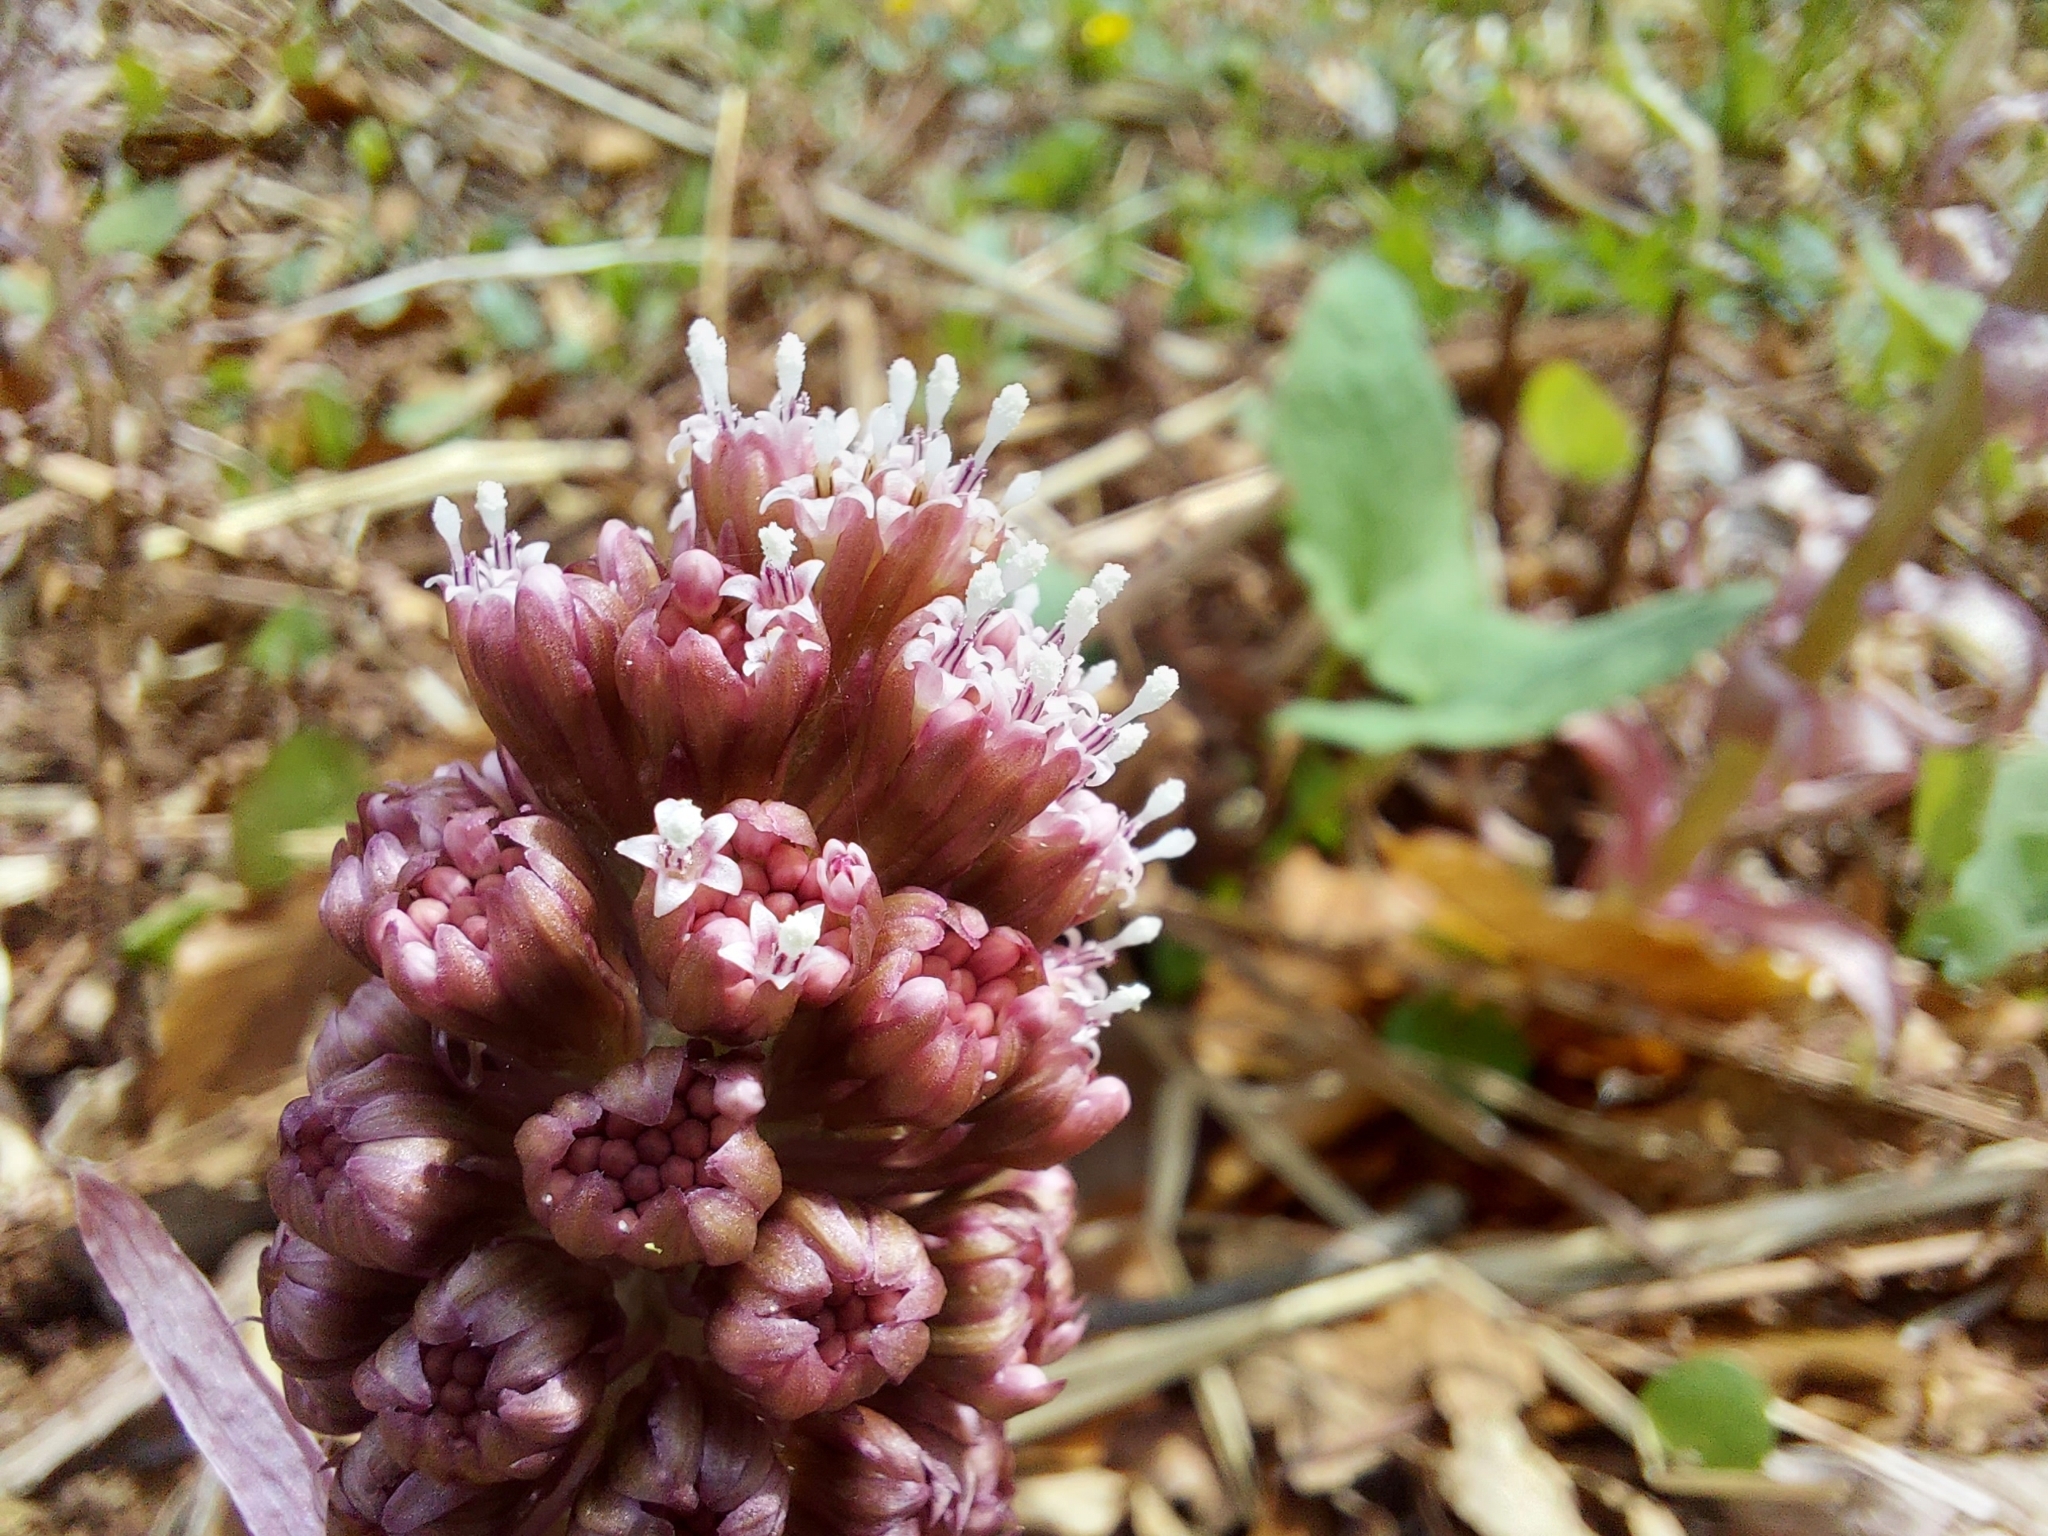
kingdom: Plantae
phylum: Tracheophyta
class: Magnoliopsida
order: Asterales
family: Asteraceae
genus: Petasites
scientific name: Petasites hybridus
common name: Butterbur
